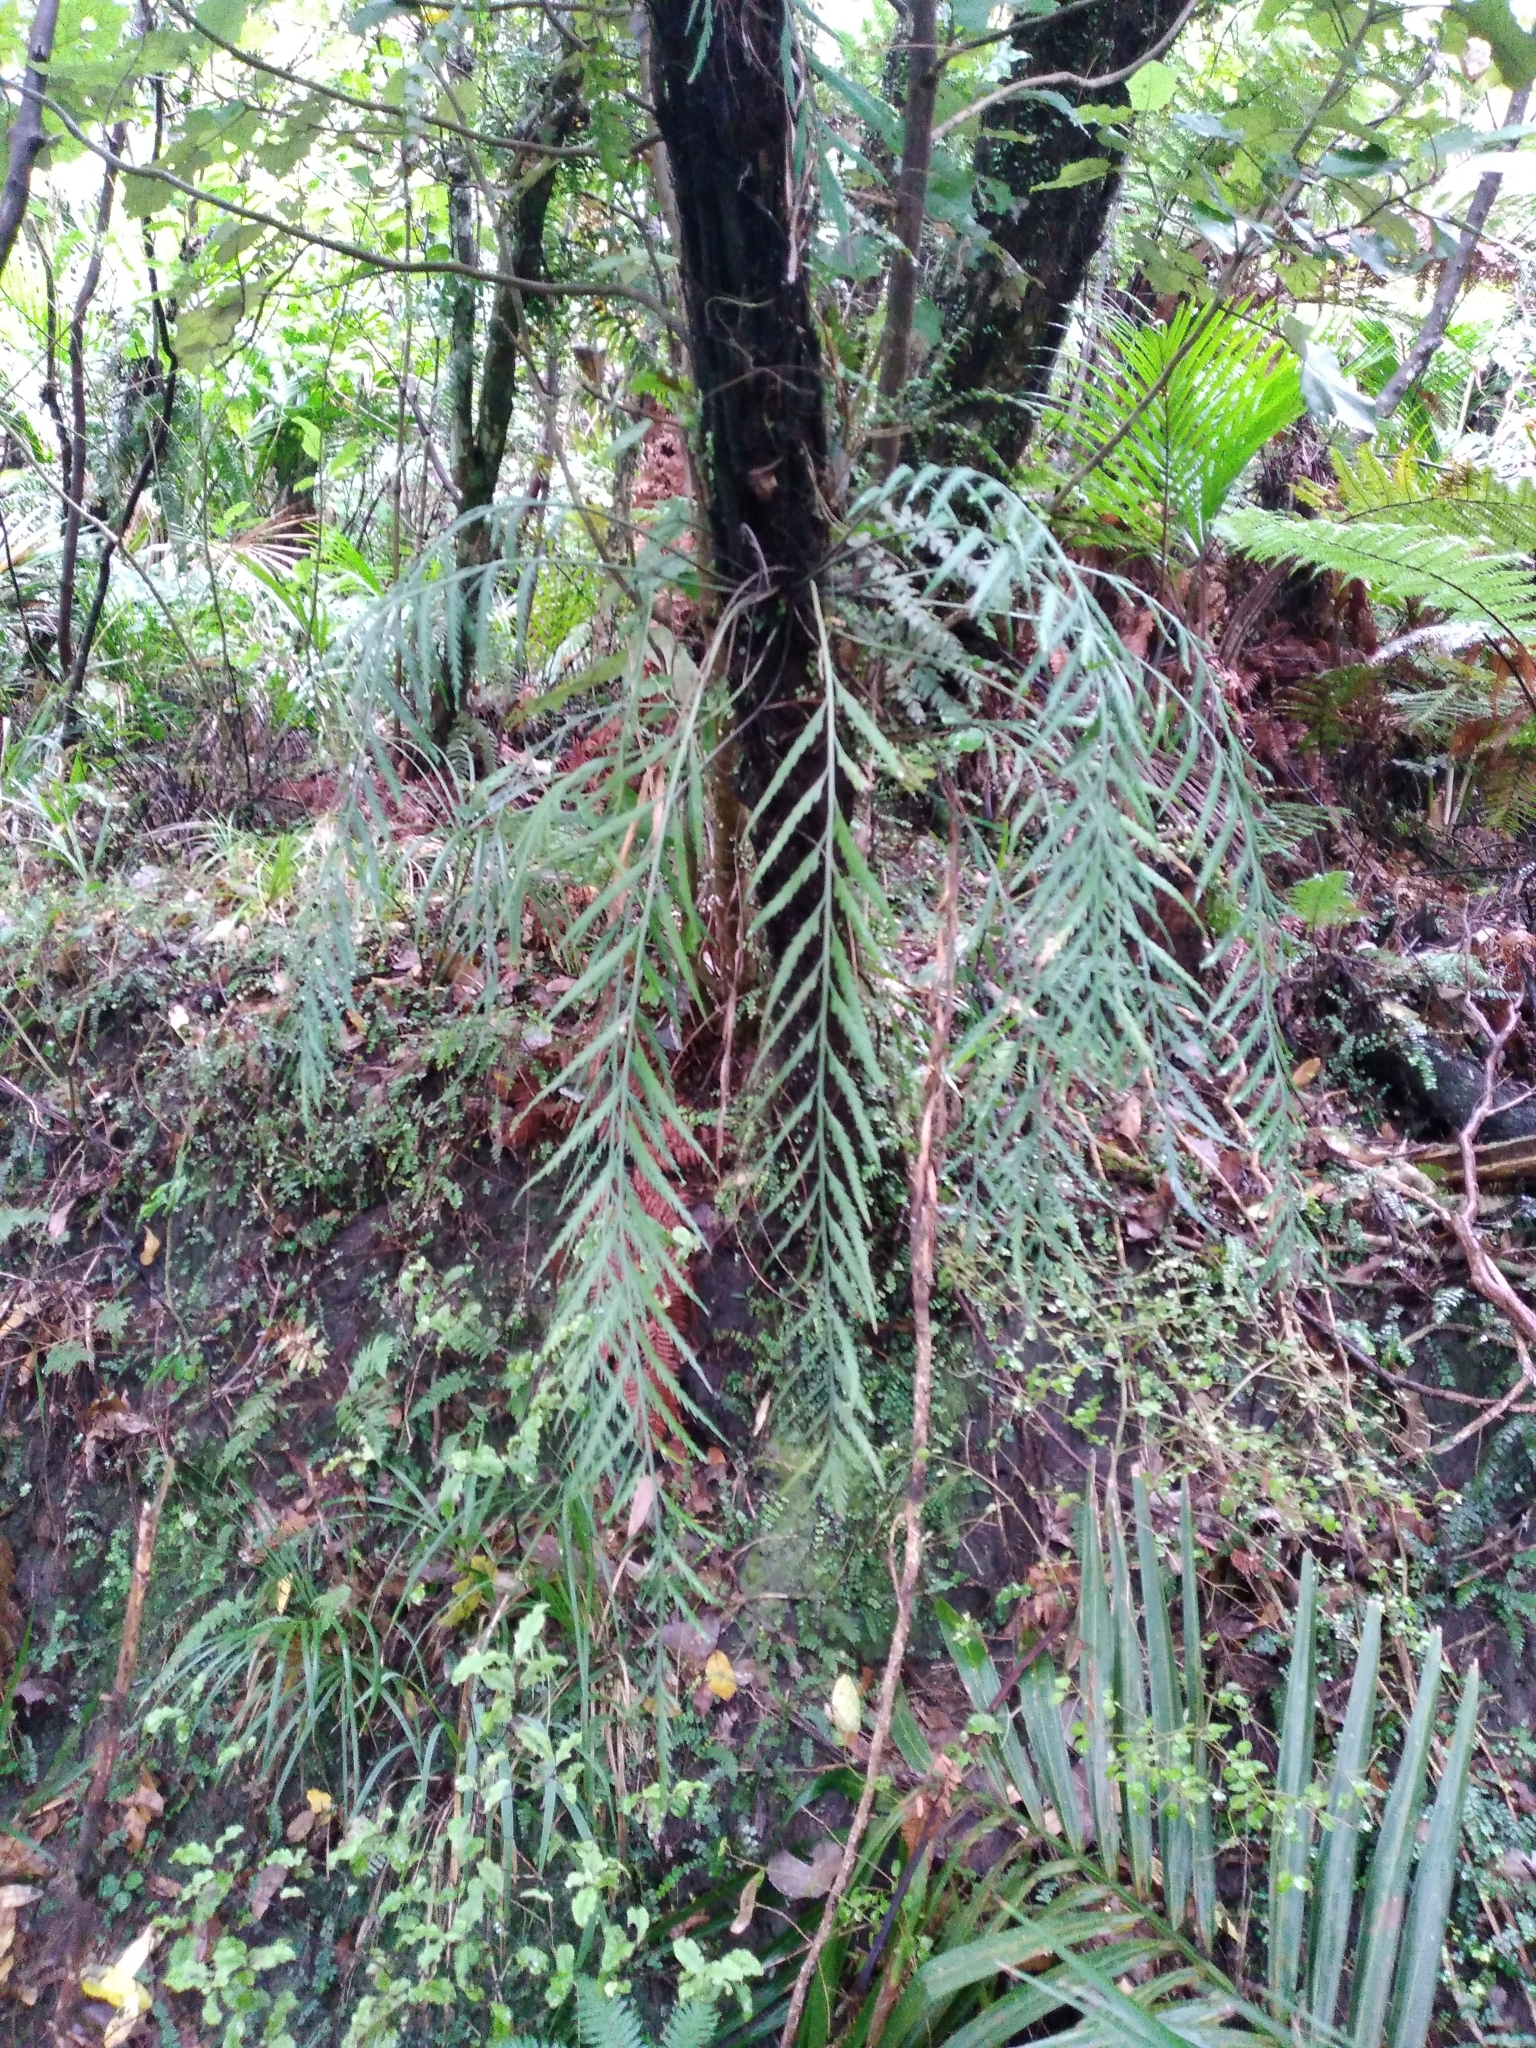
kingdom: Plantae
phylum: Tracheophyta
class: Polypodiopsida
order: Polypodiales
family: Aspleniaceae
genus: Asplenium
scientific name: Asplenium flaccidum
